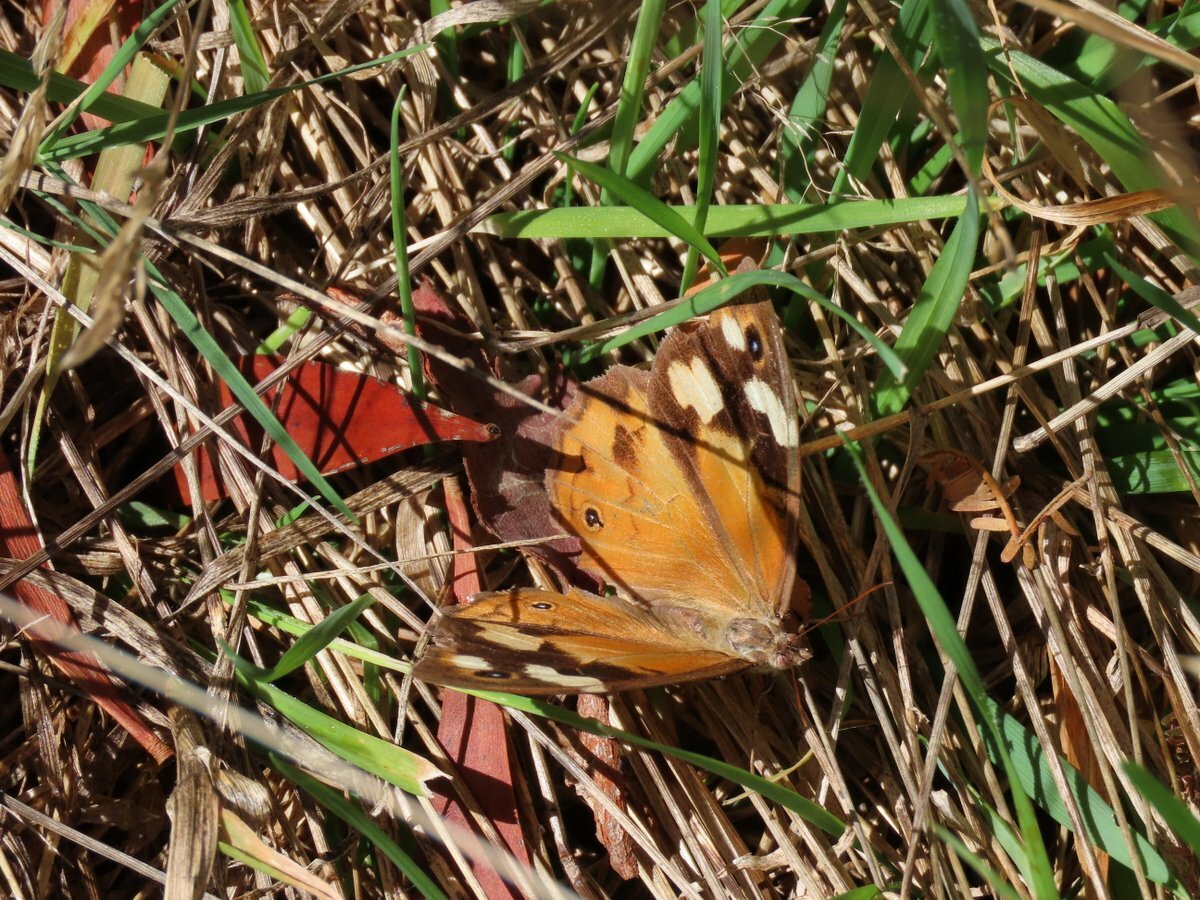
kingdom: Animalia
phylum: Arthropoda
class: Insecta
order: Lepidoptera
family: Nymphalidae
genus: Heteronympha
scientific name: Heteronympha merope
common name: Common brown
